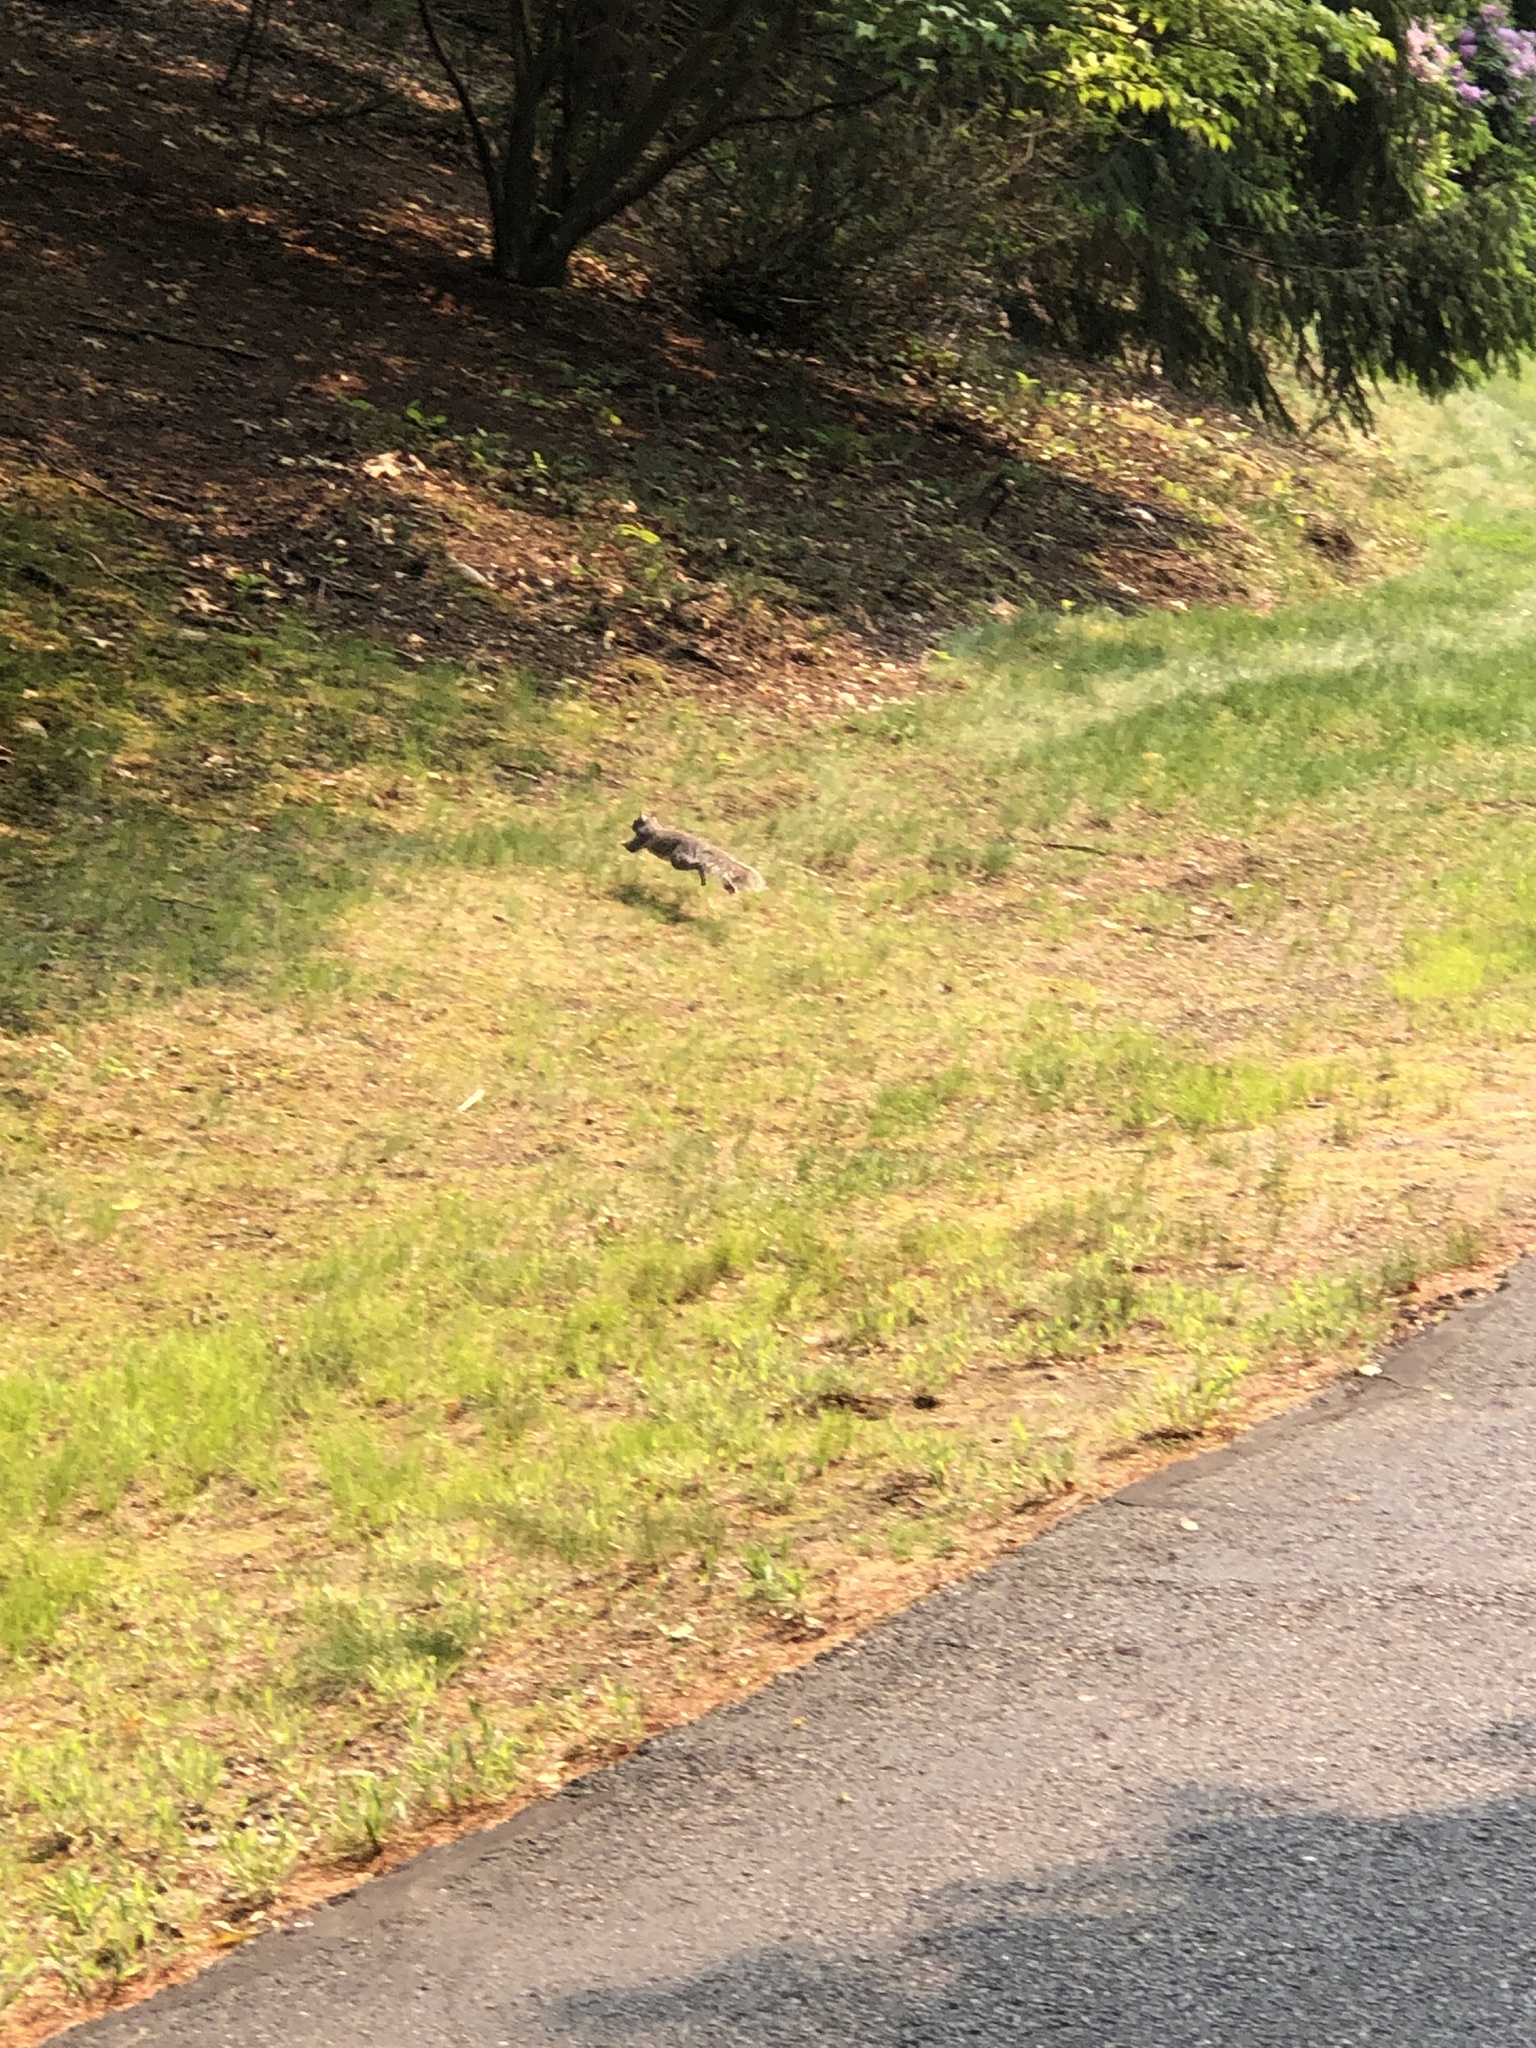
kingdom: Animalia
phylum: Chordata
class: Mammalia
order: Rodentia
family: Sciuridae
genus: Sciurus
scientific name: Sciurus carolinensis
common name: Eastern gray squirrel
